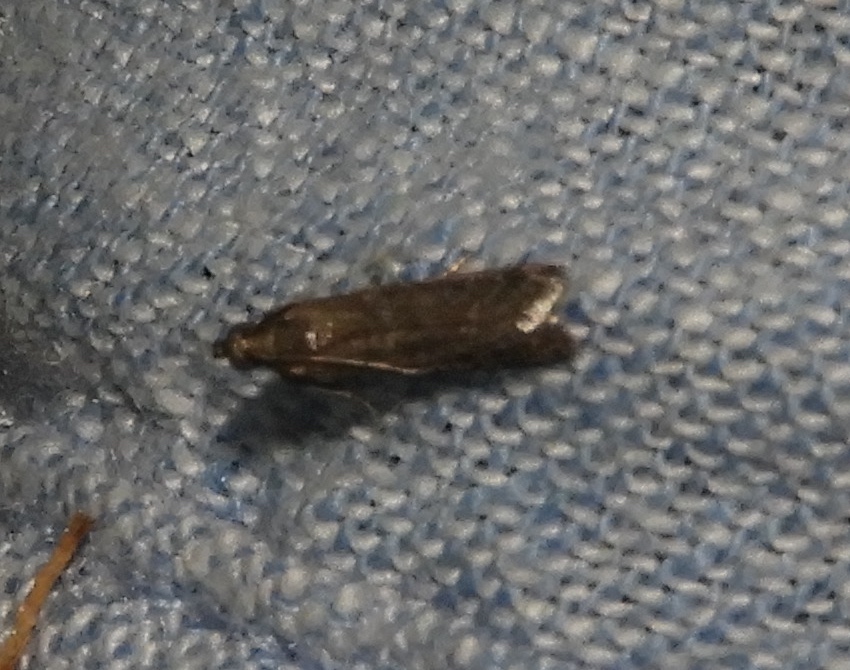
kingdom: Animalia
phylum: Arthropoda
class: Insecta
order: Lepidoptera
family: Pyralidae
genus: Ephestiodes
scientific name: Ephestiodes gilvescentella
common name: Moth
